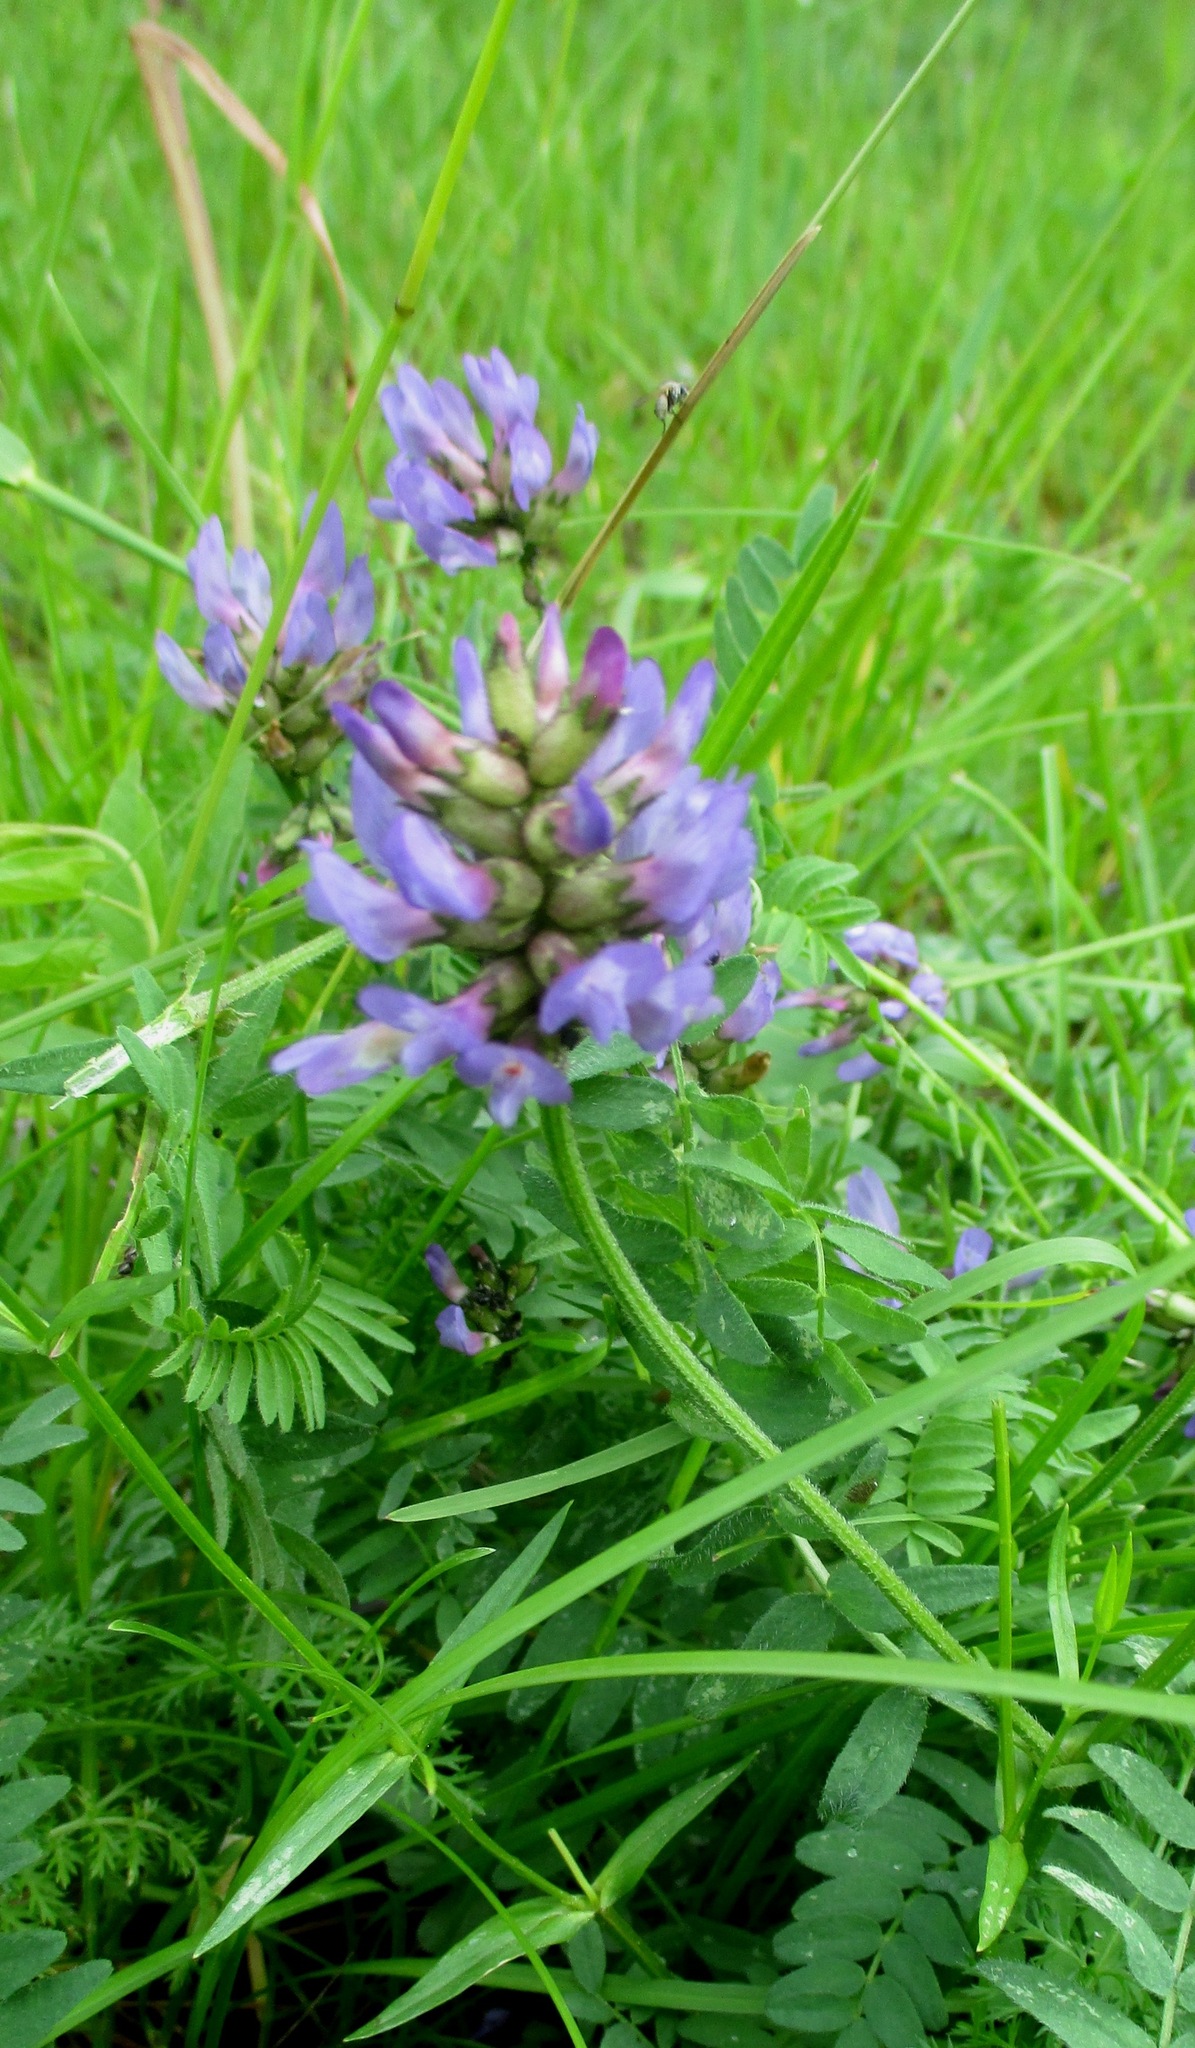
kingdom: Plantae
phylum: Tracheophyta
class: Magnoliopsida
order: Fabales
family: Fabaceae
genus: Astragalus
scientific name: Astragalus danicus
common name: Purple milk-vetch
